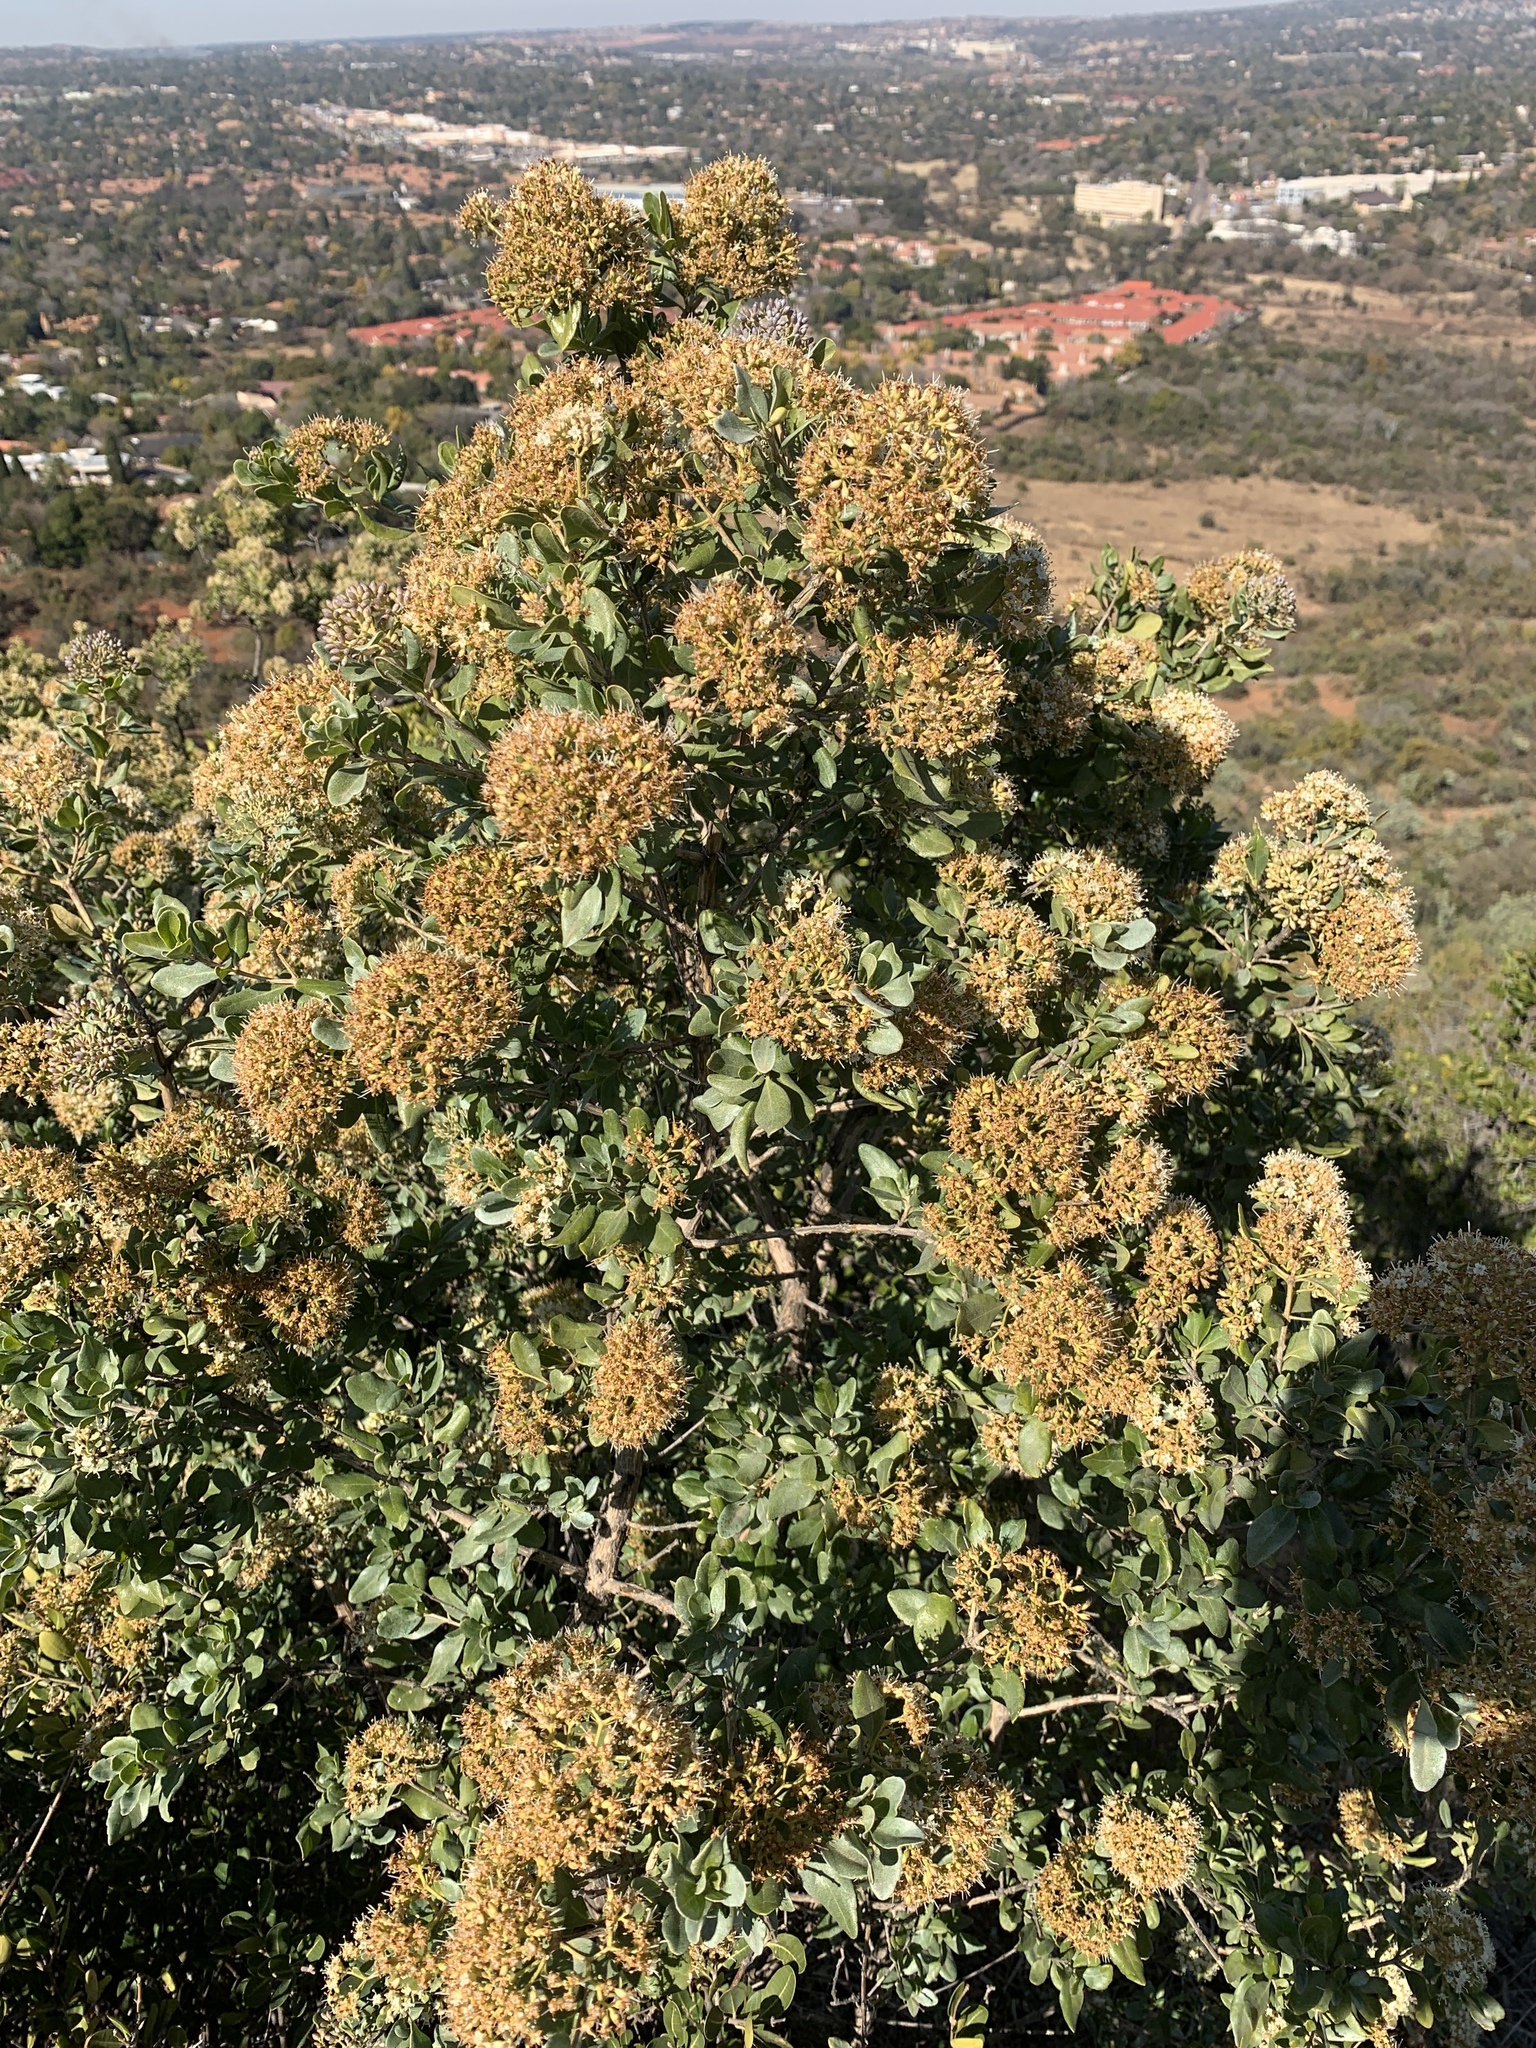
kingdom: Plantae
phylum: Tracheophyta
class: Magnoliopsida
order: Lamiales
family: Stilbaceae
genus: Nuxia
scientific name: Nuxia congesta
